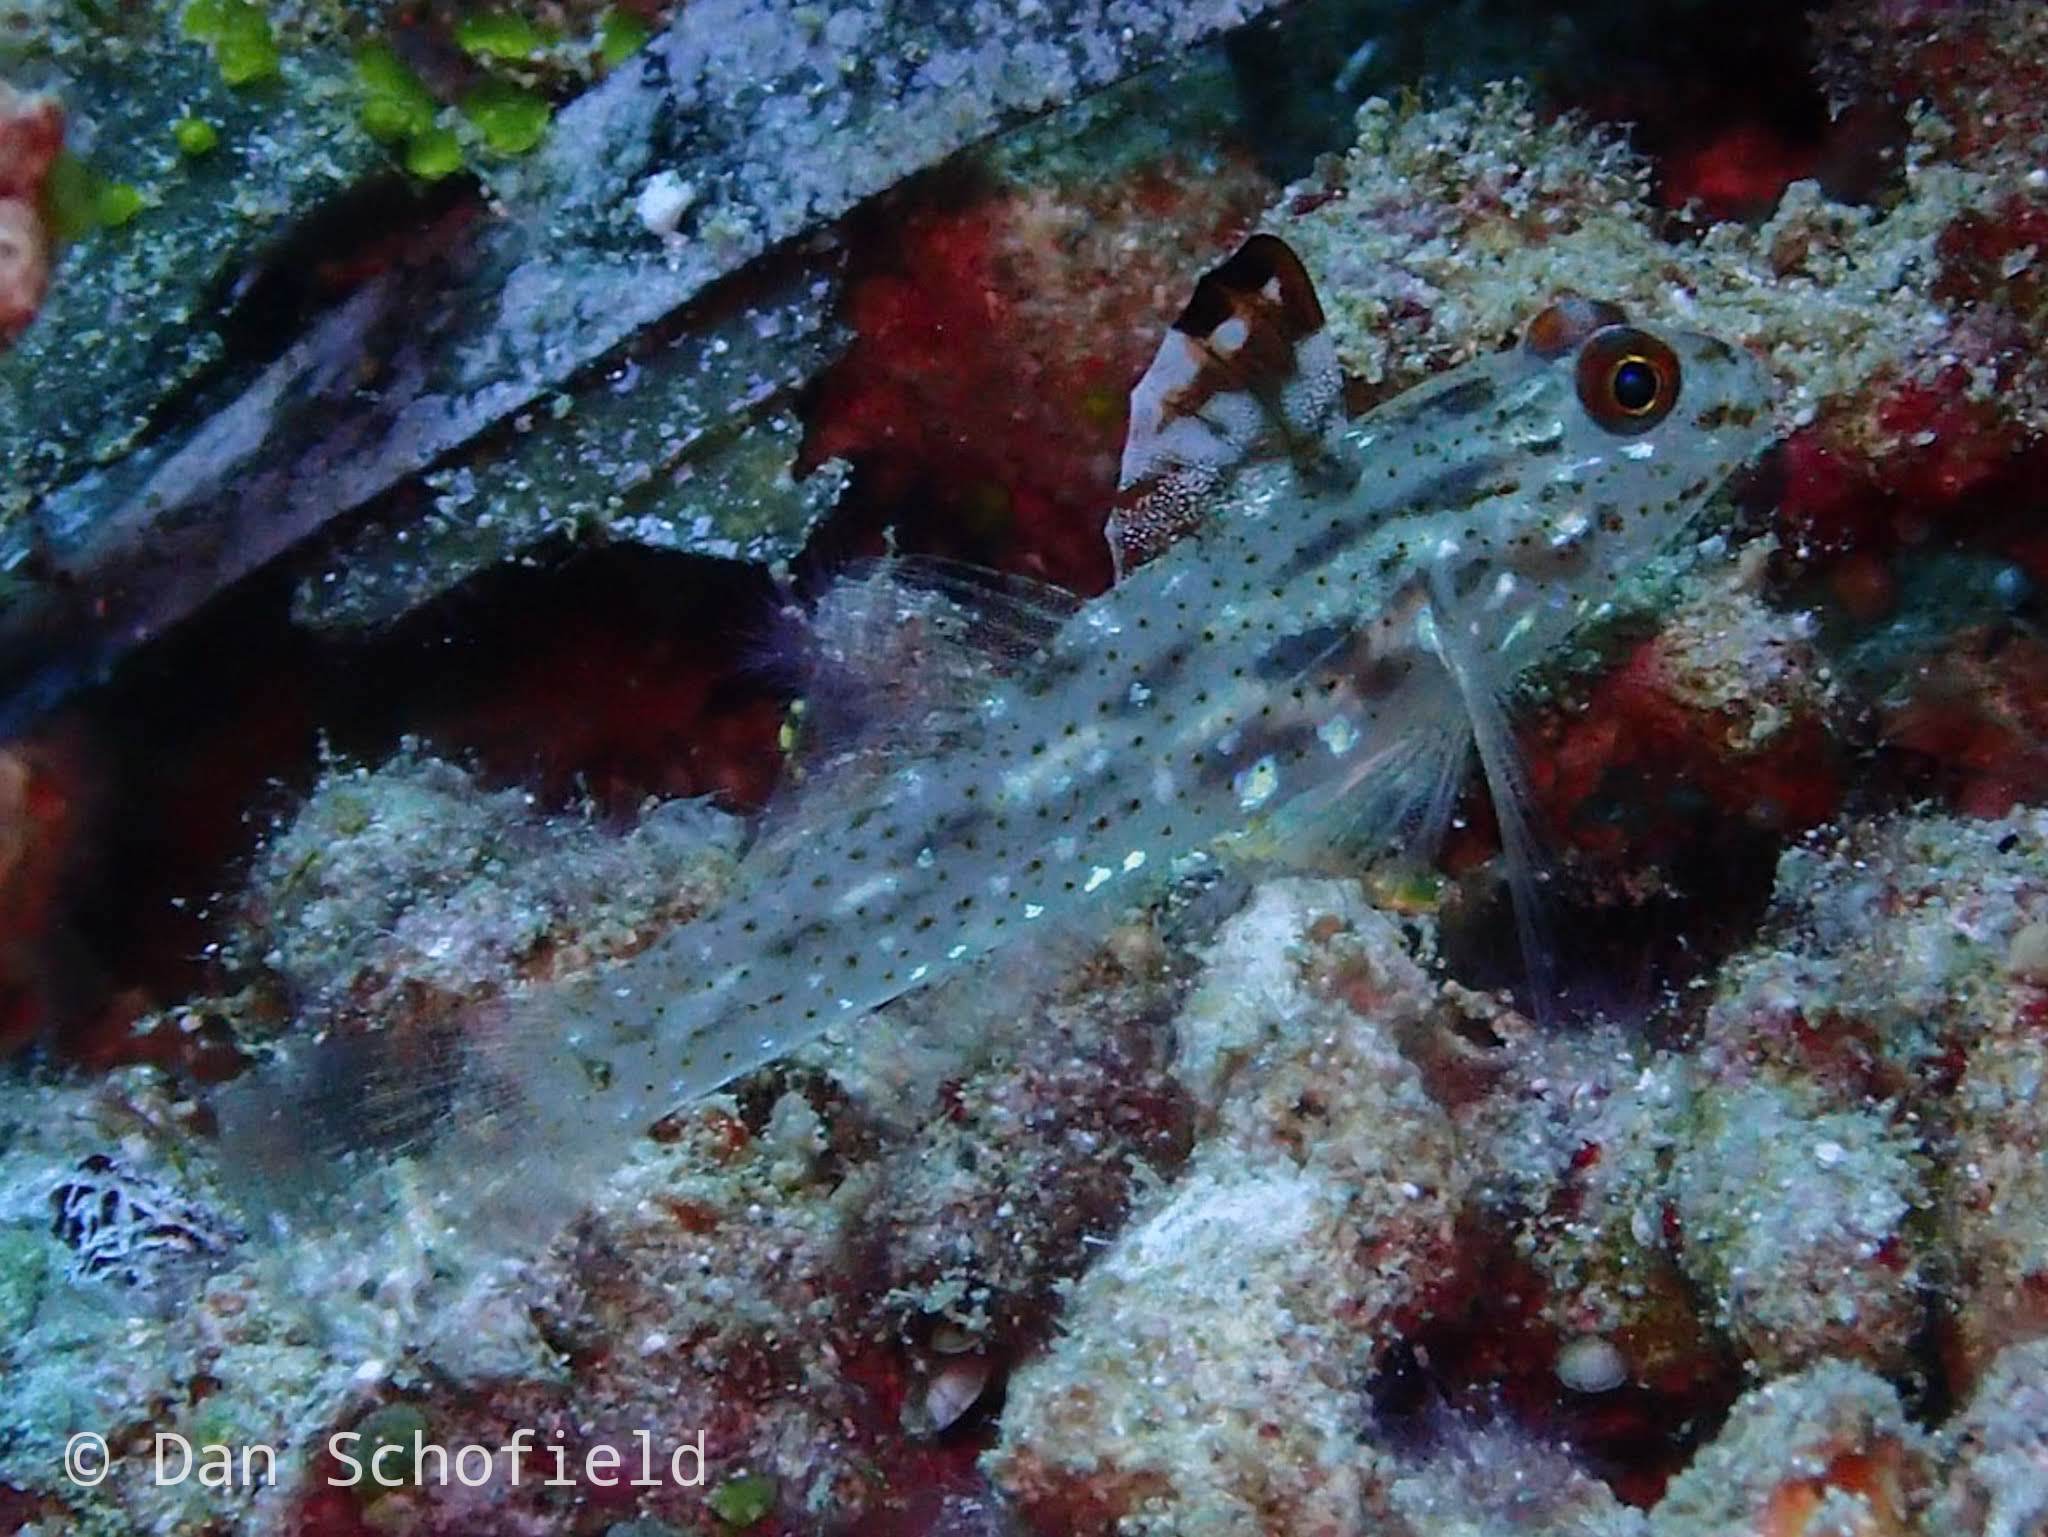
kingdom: Animalia
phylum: Chordata
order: Perciformes
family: Gobiidae
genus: Fusigobius
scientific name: Fusigobius signipinnis
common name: Flasher sand-goby
